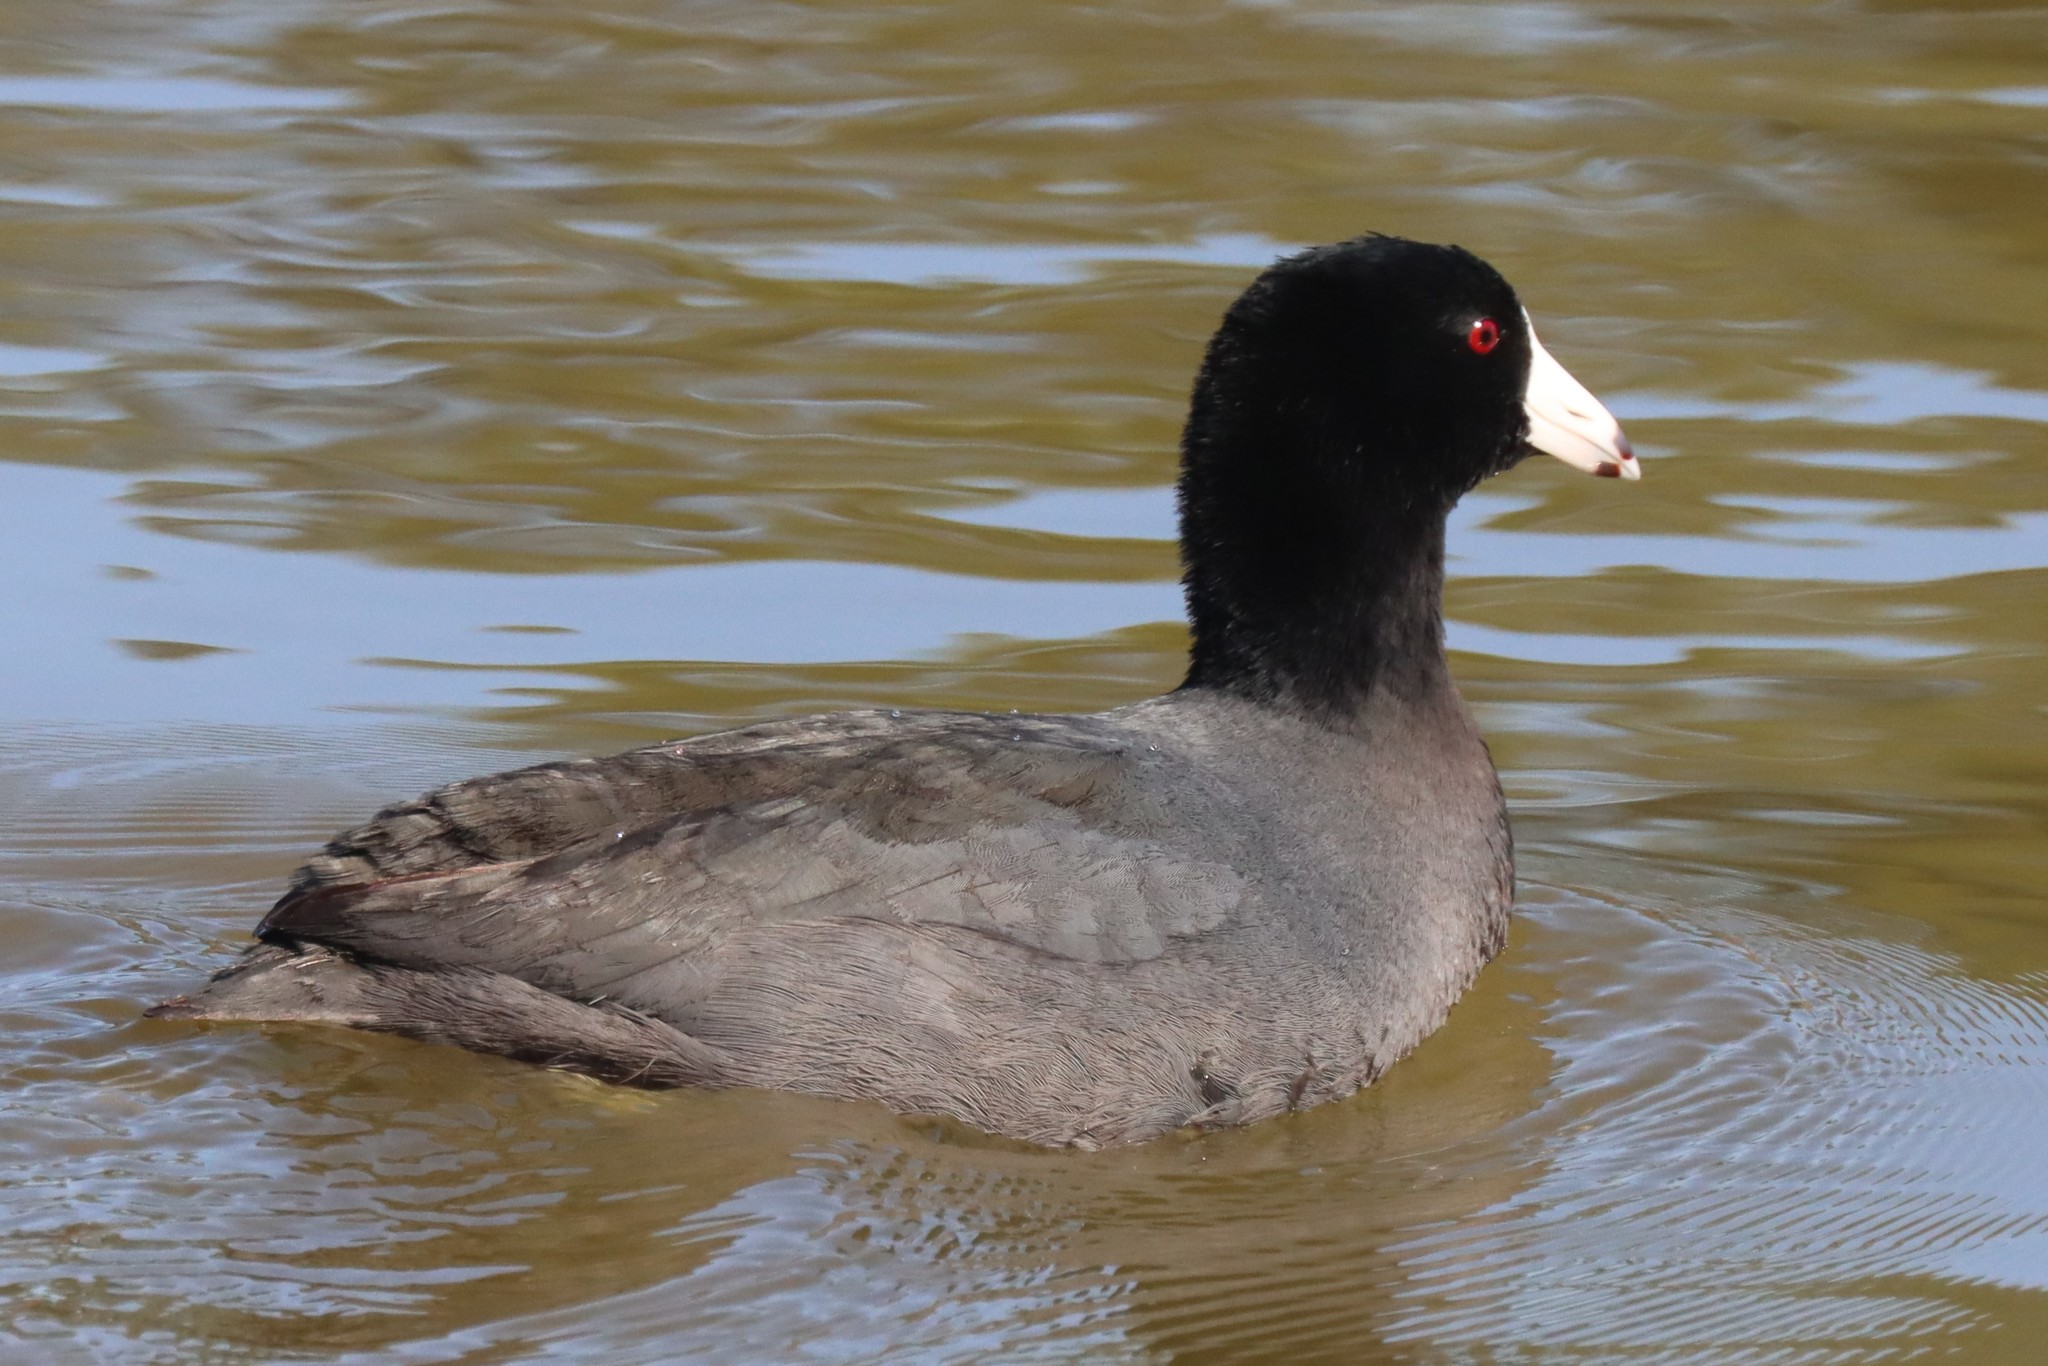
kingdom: Animalia
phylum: Chordata
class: Aves
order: Gruiformes
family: Rallidae
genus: Fulica
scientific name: Fulica americana
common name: American coot
